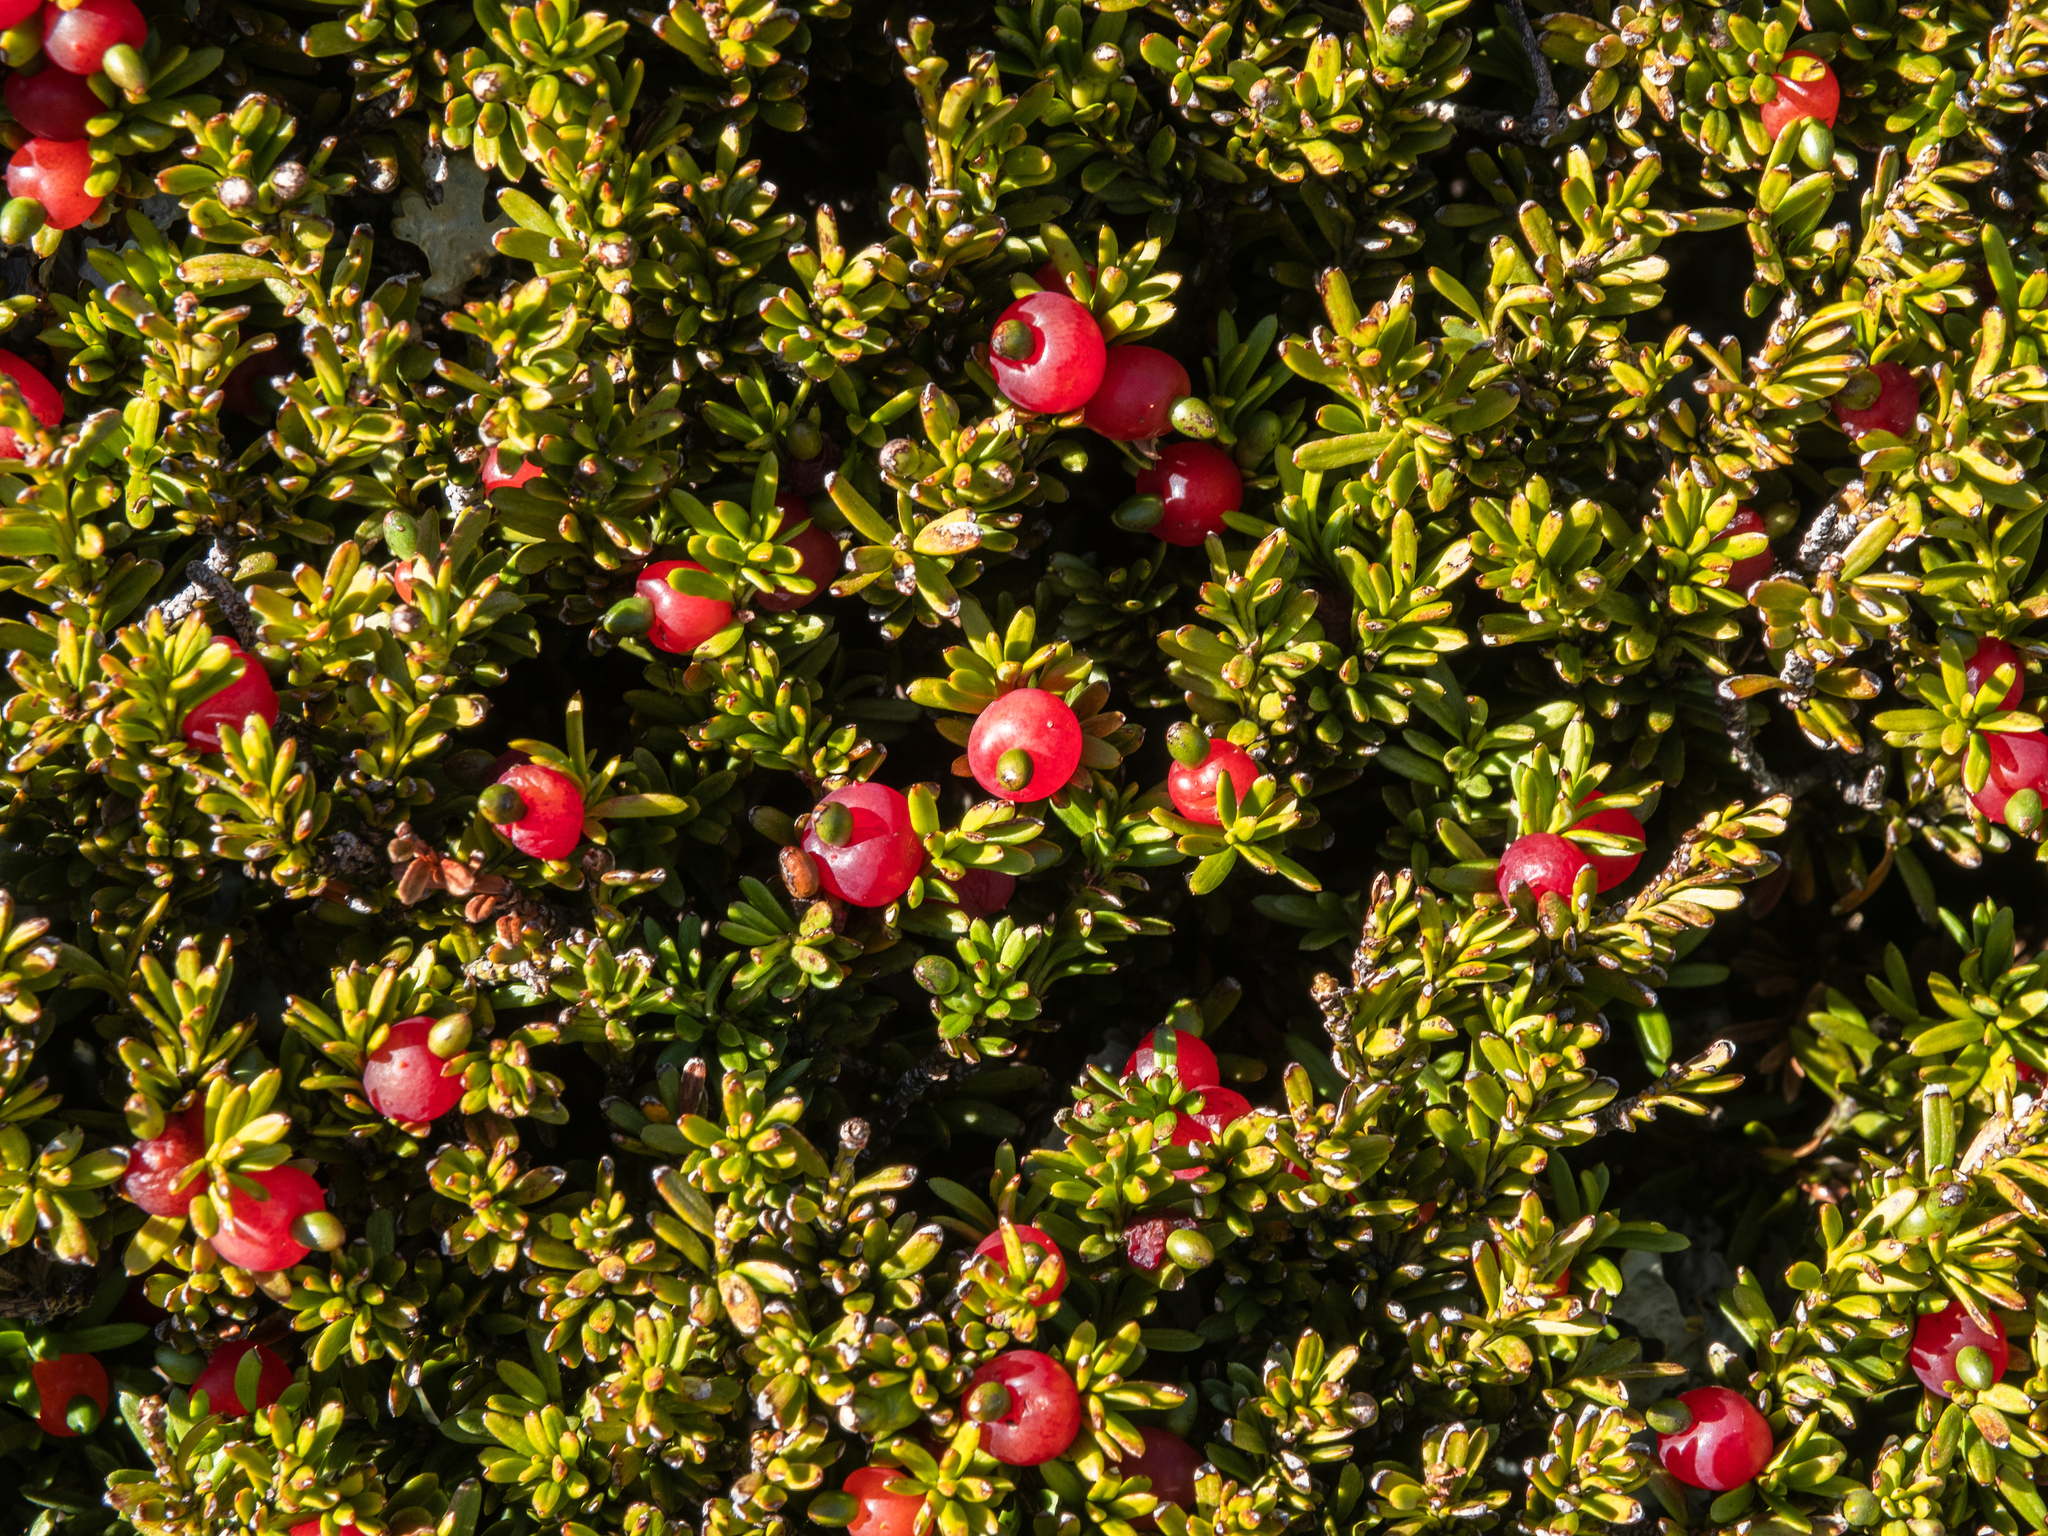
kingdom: Plantae
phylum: Tracheophyta
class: Pinopsida
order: Pinales
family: Podocarpaceae
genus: Podocarpus
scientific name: Podocarpus nivalis
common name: Alpine totara
